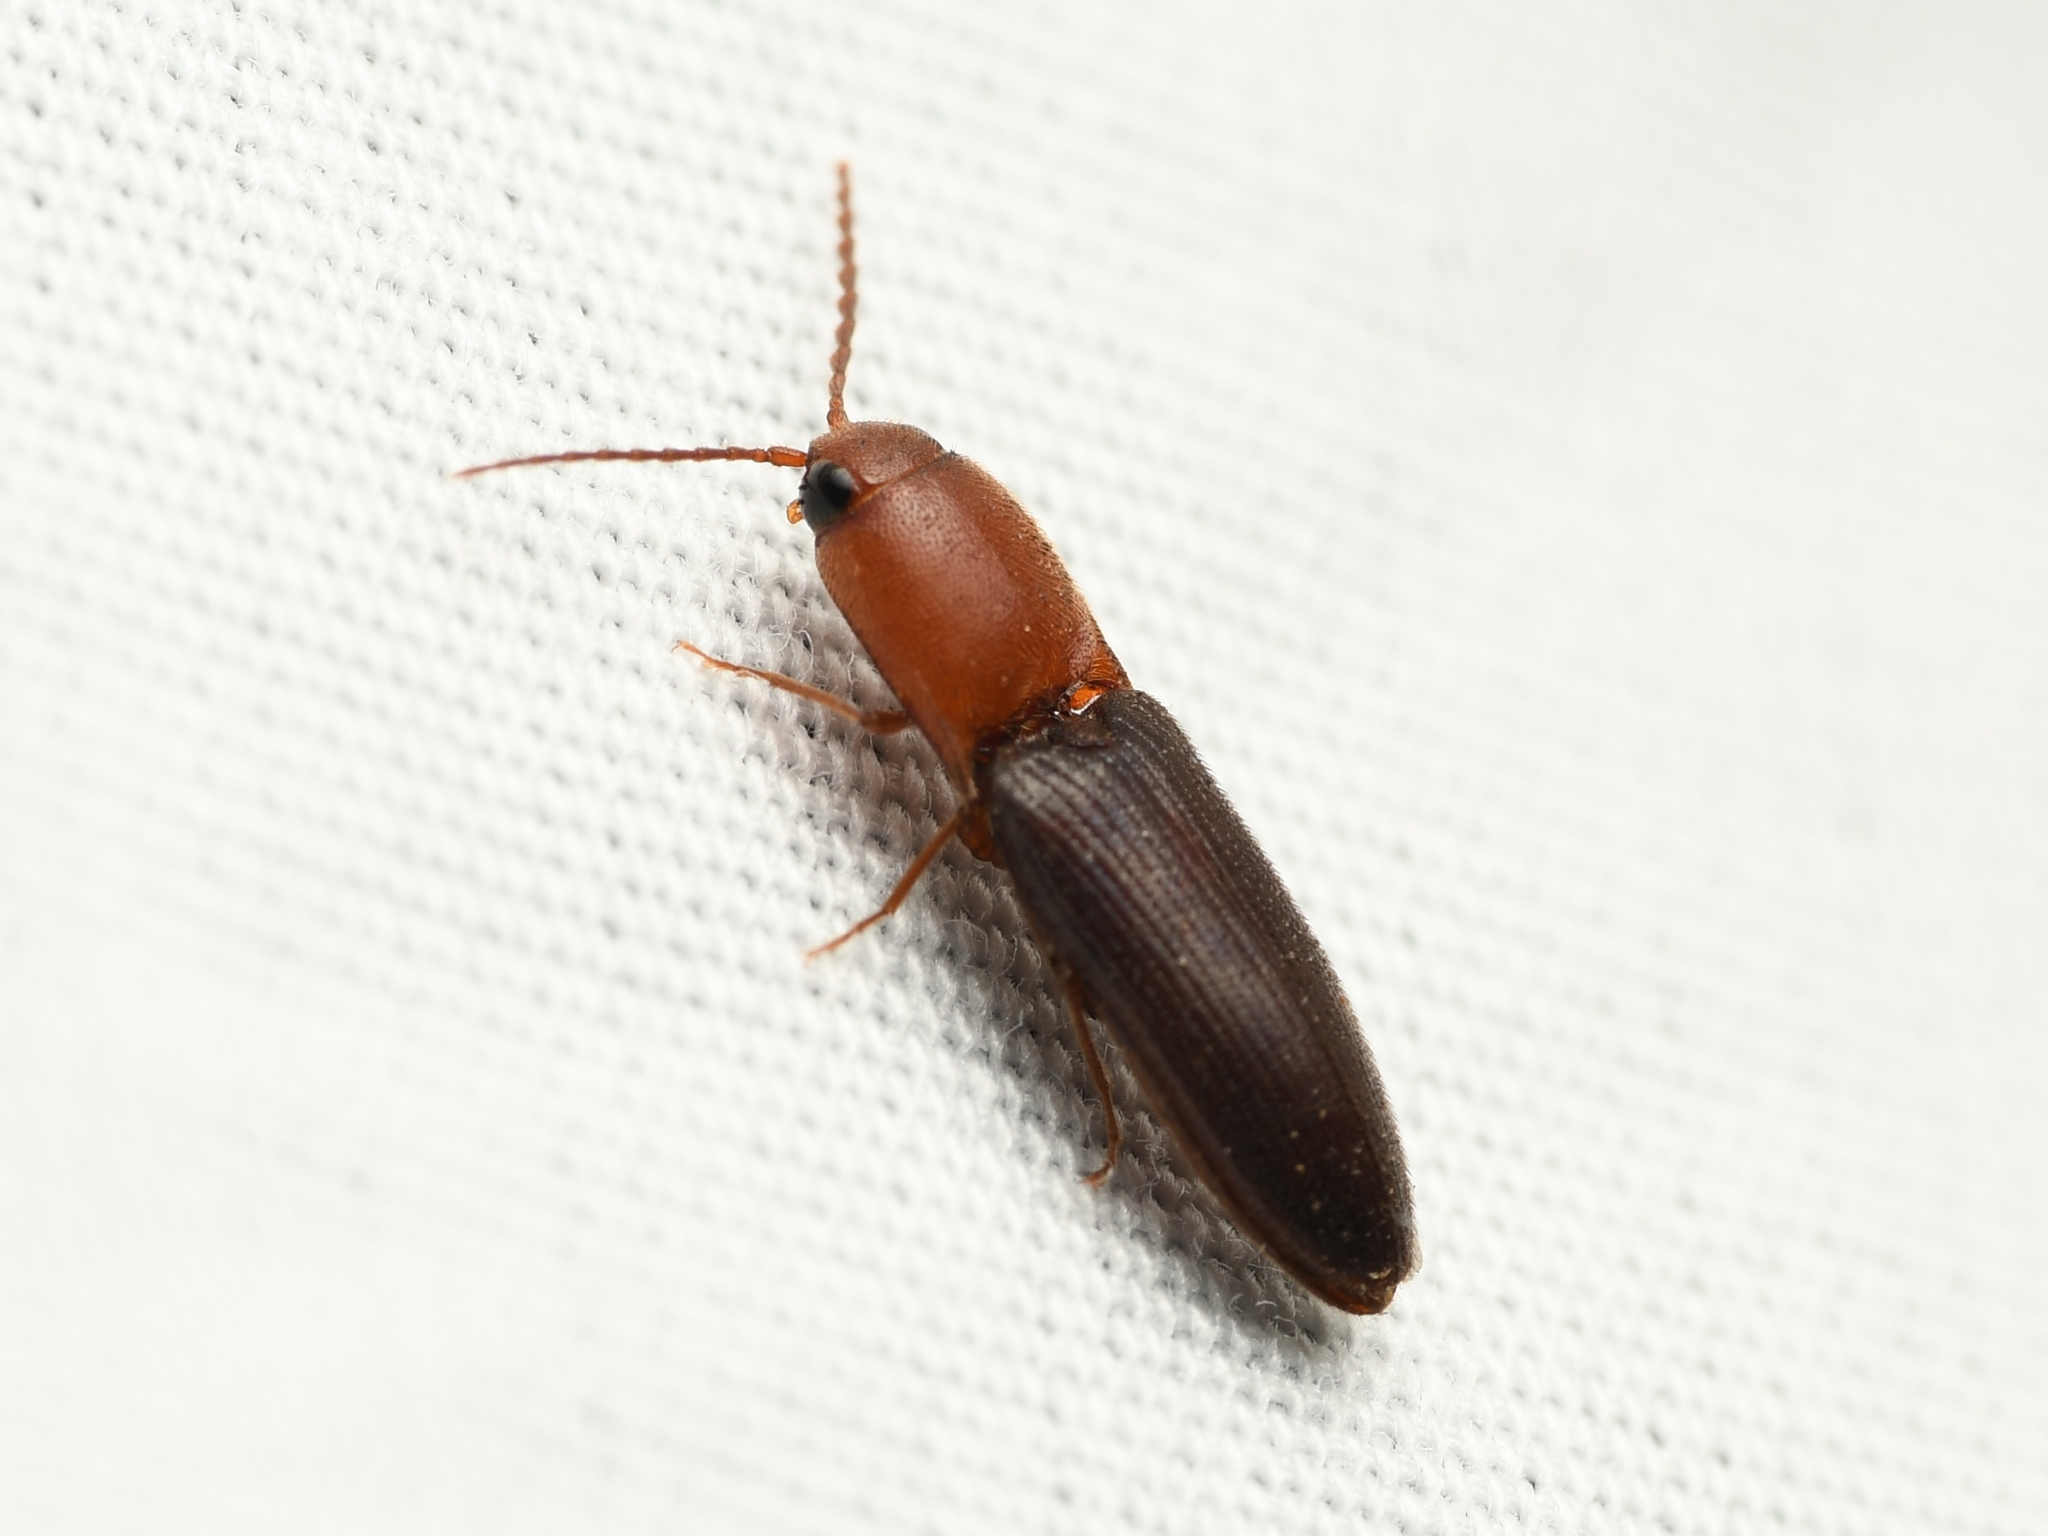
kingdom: Animalia
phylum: Arthropoda
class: Insecta
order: Coleoptera
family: Elateridae
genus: Anchastus
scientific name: Anchastus
